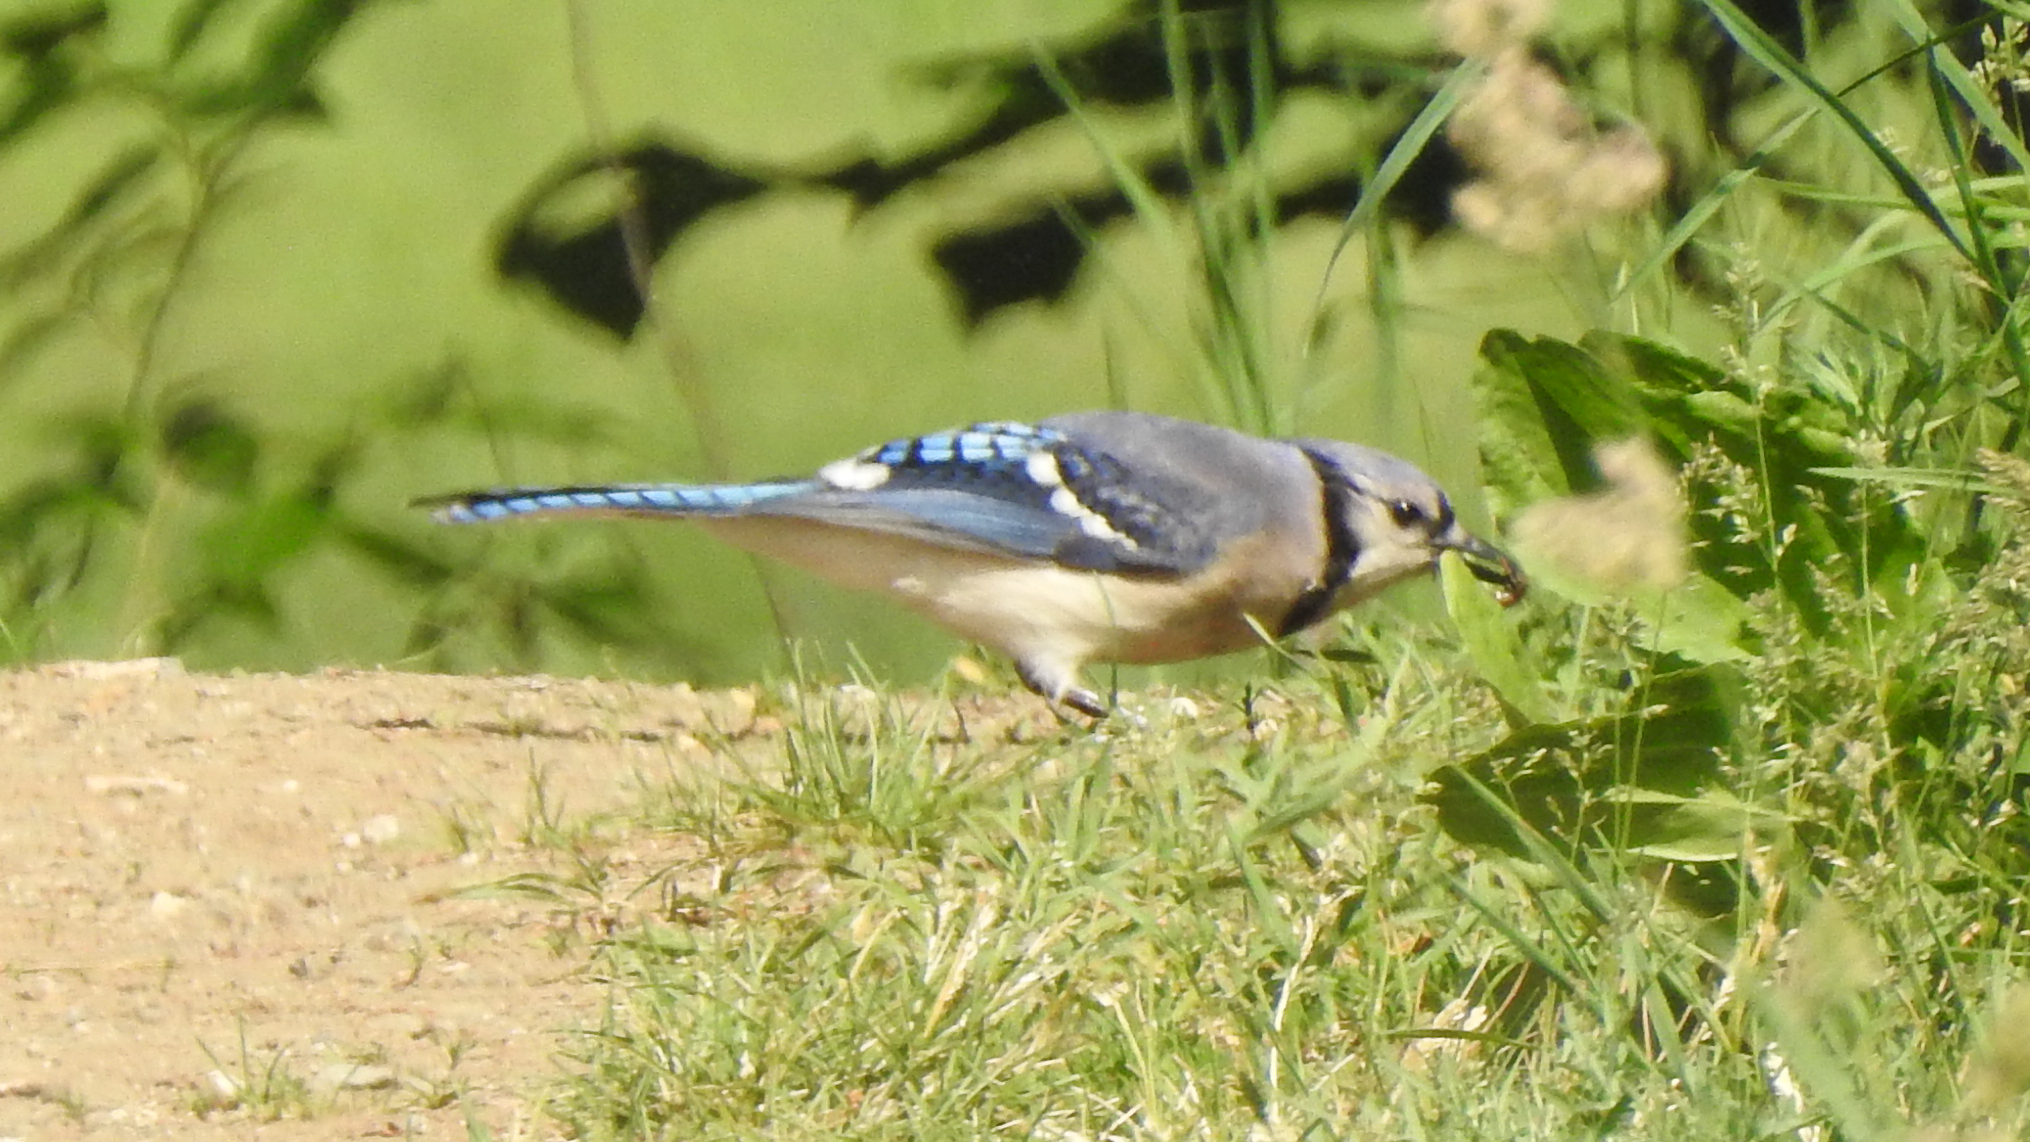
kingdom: Animalia
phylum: Chordata
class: Aves
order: Passeriformes
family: Corvidae
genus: Cyanocitta
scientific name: Cyanocitta cristata
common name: Blue jay
